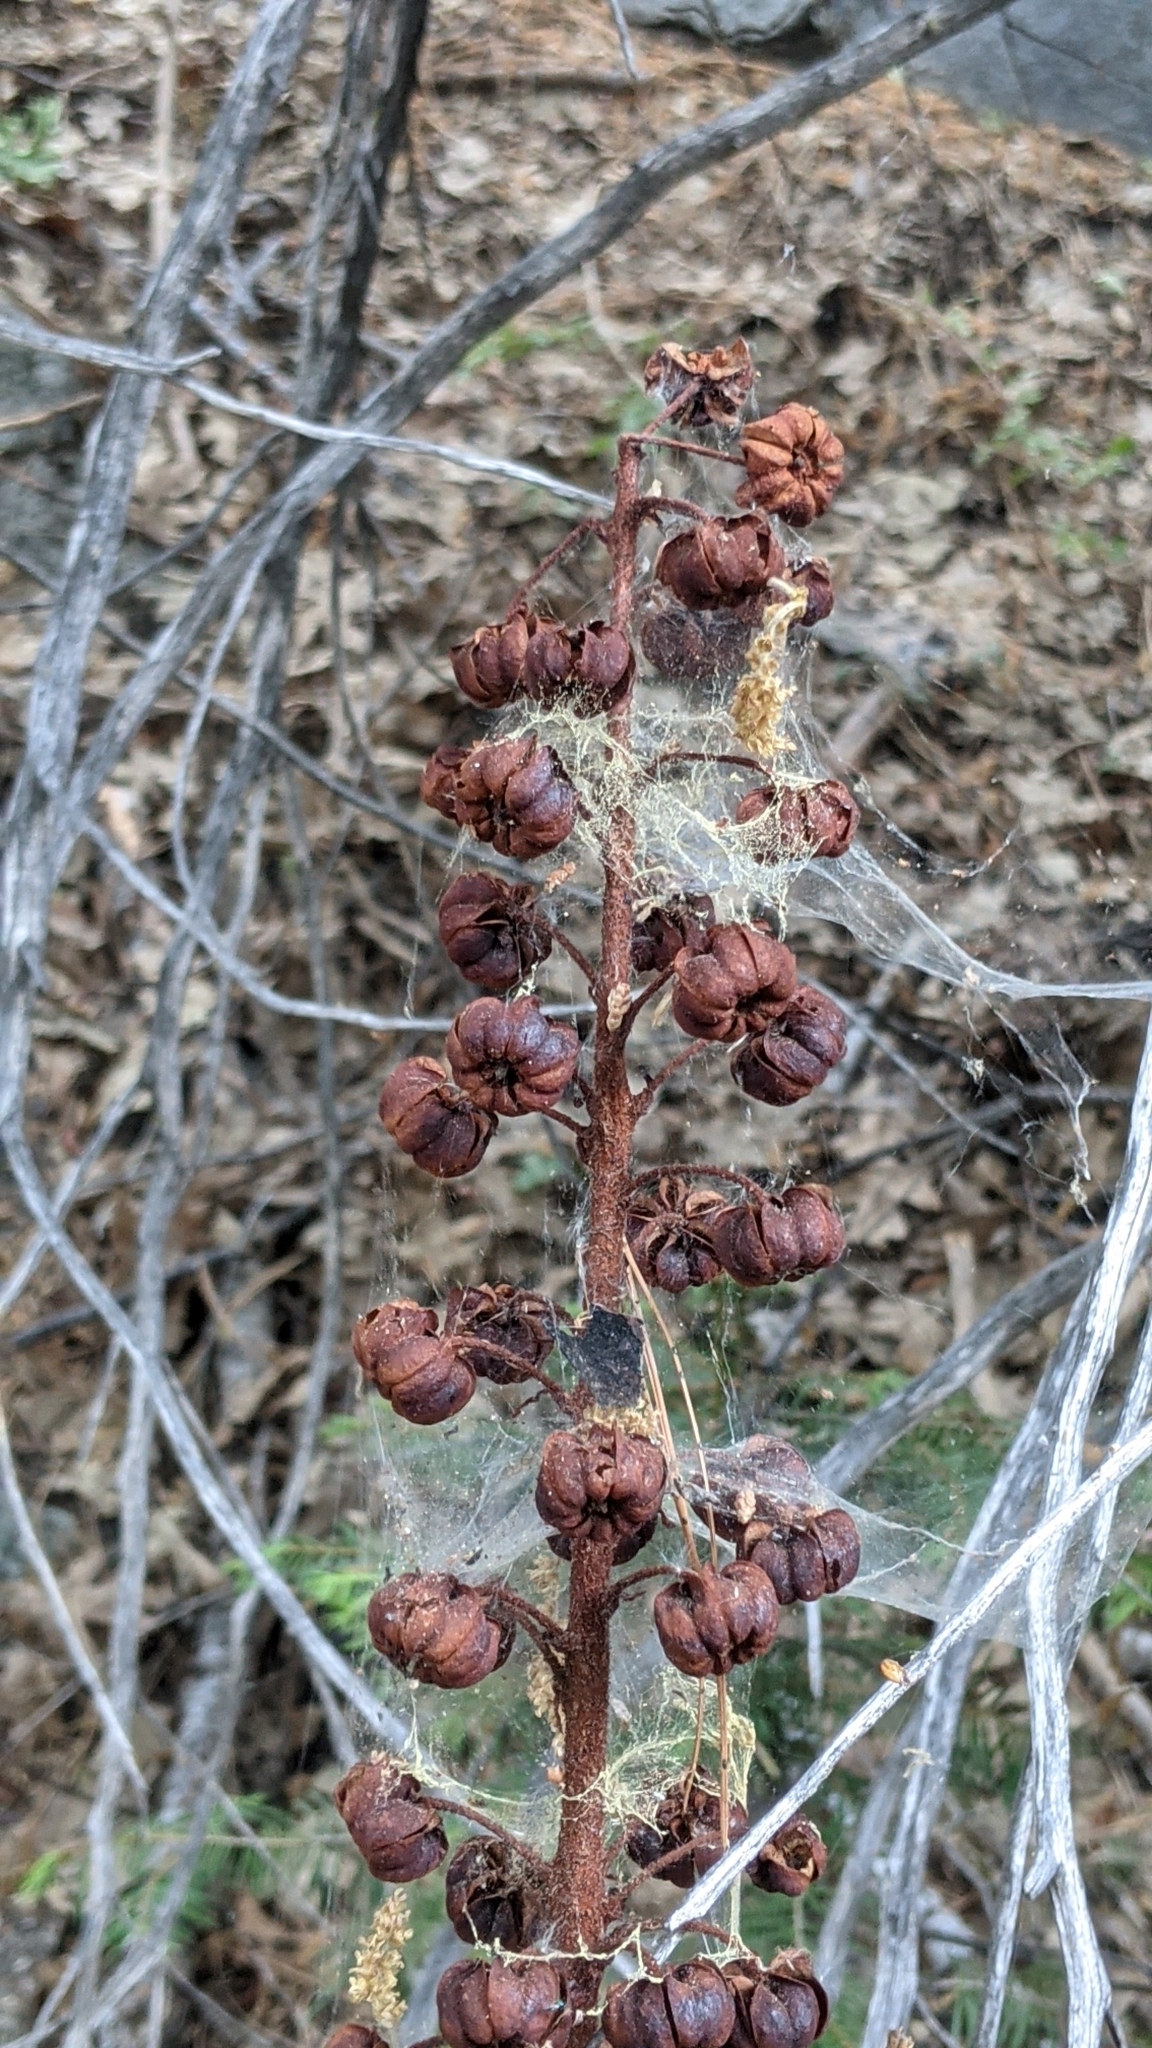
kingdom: Plantae
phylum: Tracheophyta
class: Magnoliopsida
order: Ericales
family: Ericaceae
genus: Pterospora
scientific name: Pterospora andromedea
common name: Giant bird's-nest
